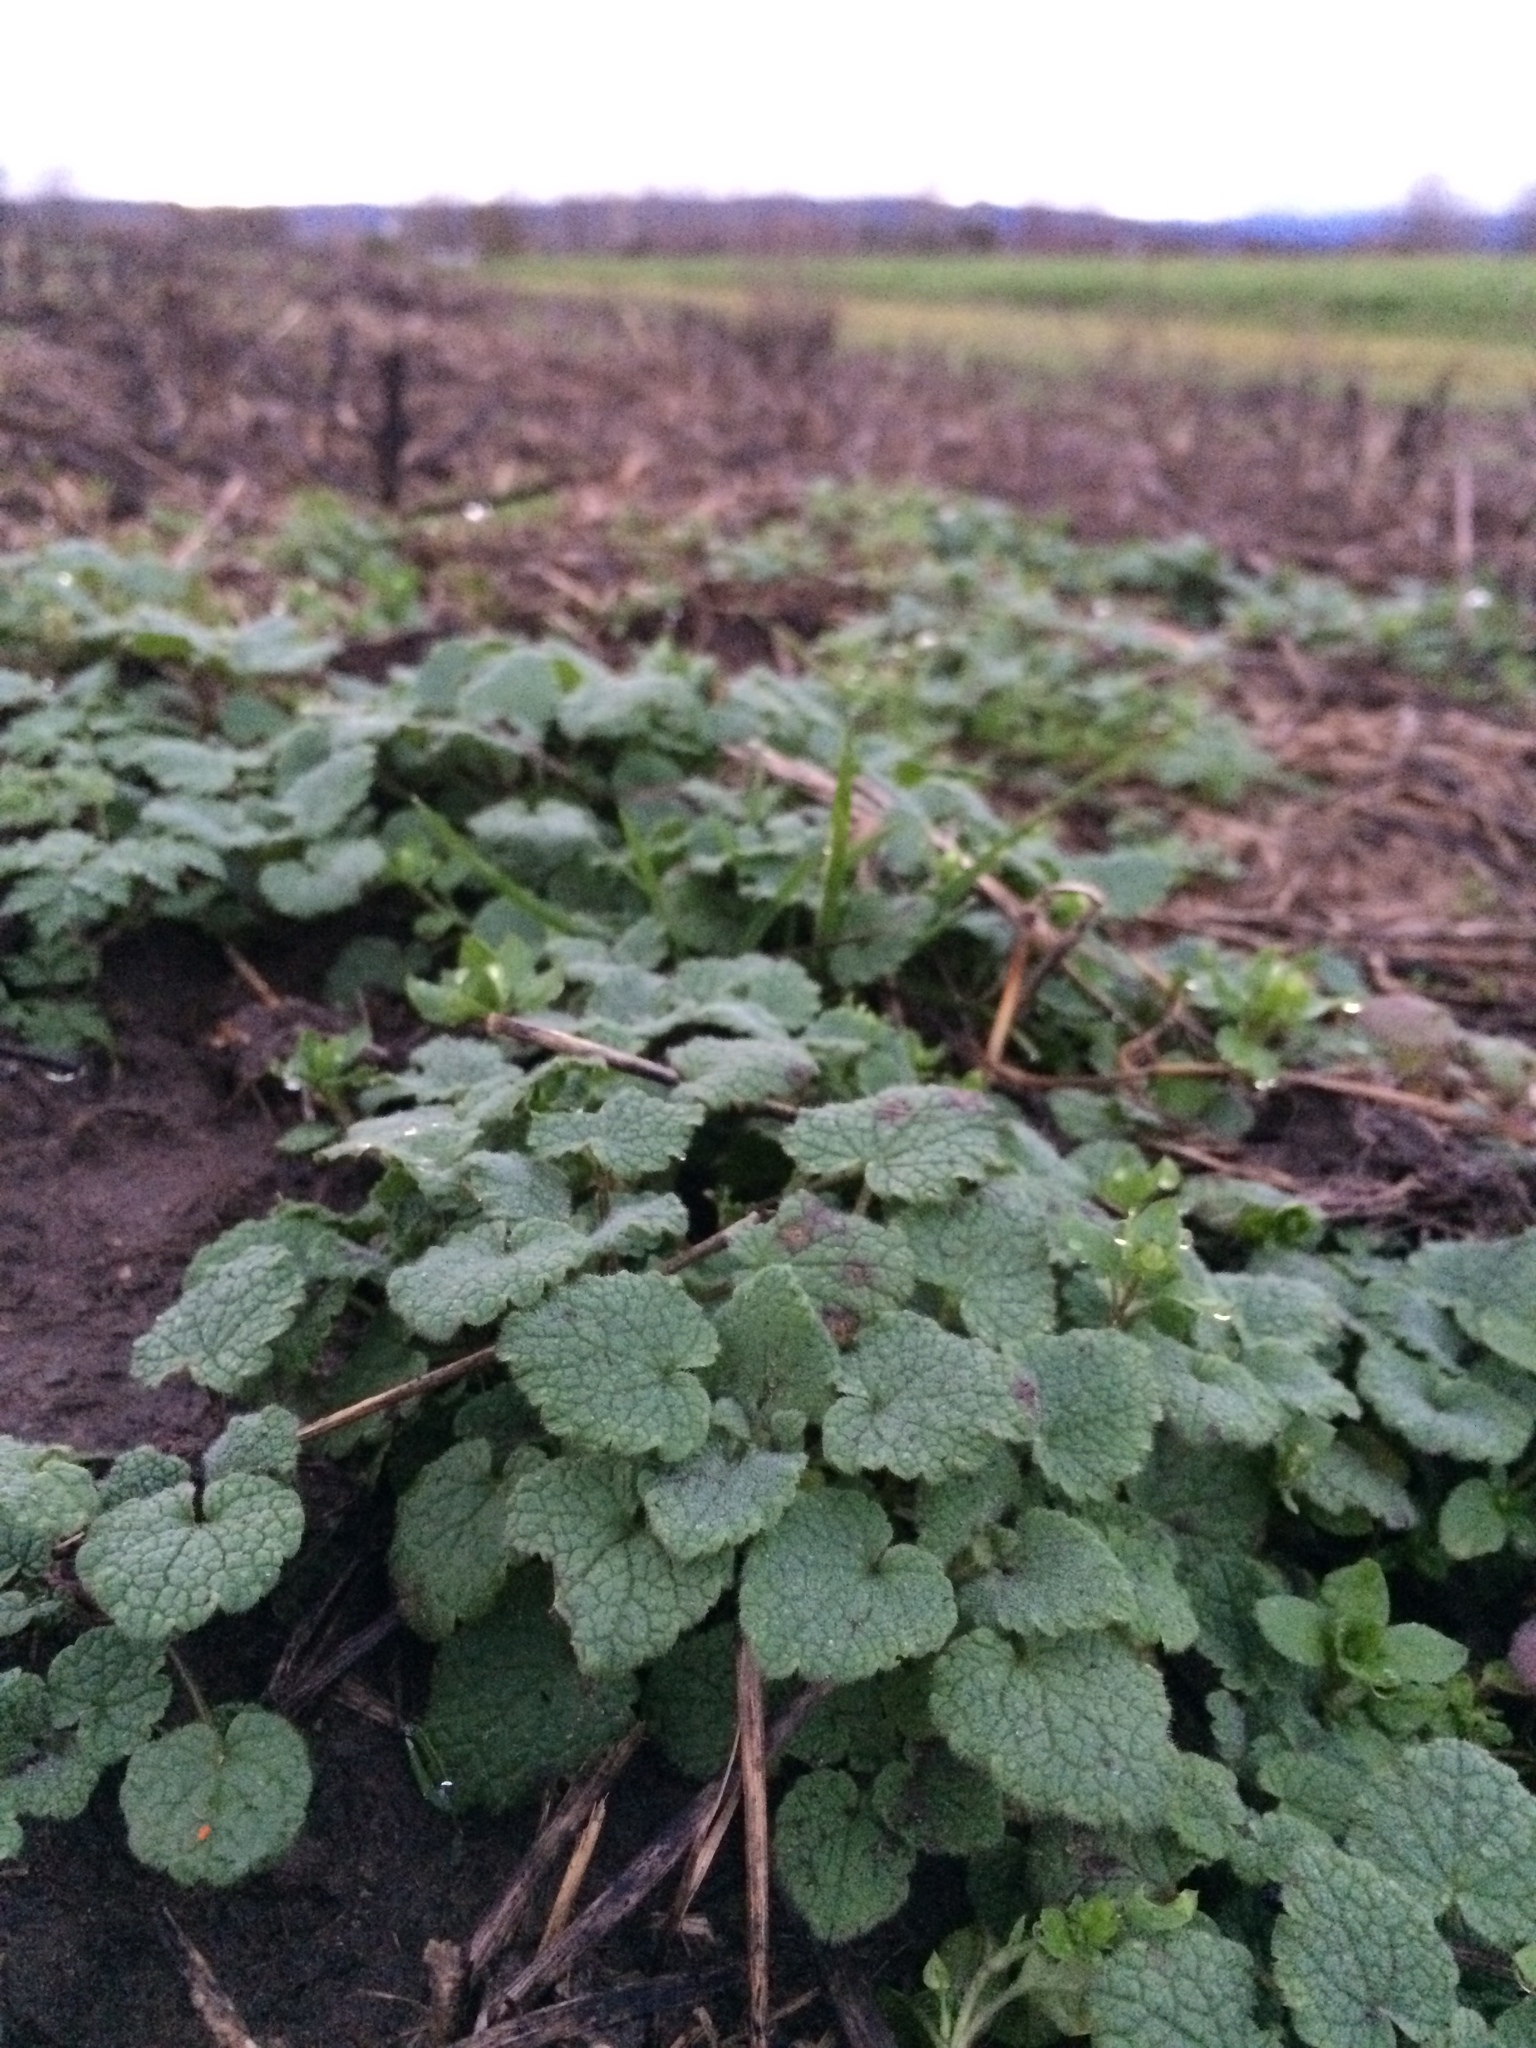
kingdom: Plantae
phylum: Tracheophyta
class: Magnoliopsida
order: Lamiales
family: Lamiaceae
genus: Lamium
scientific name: Lamium purpureum
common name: Red dead-nettle
